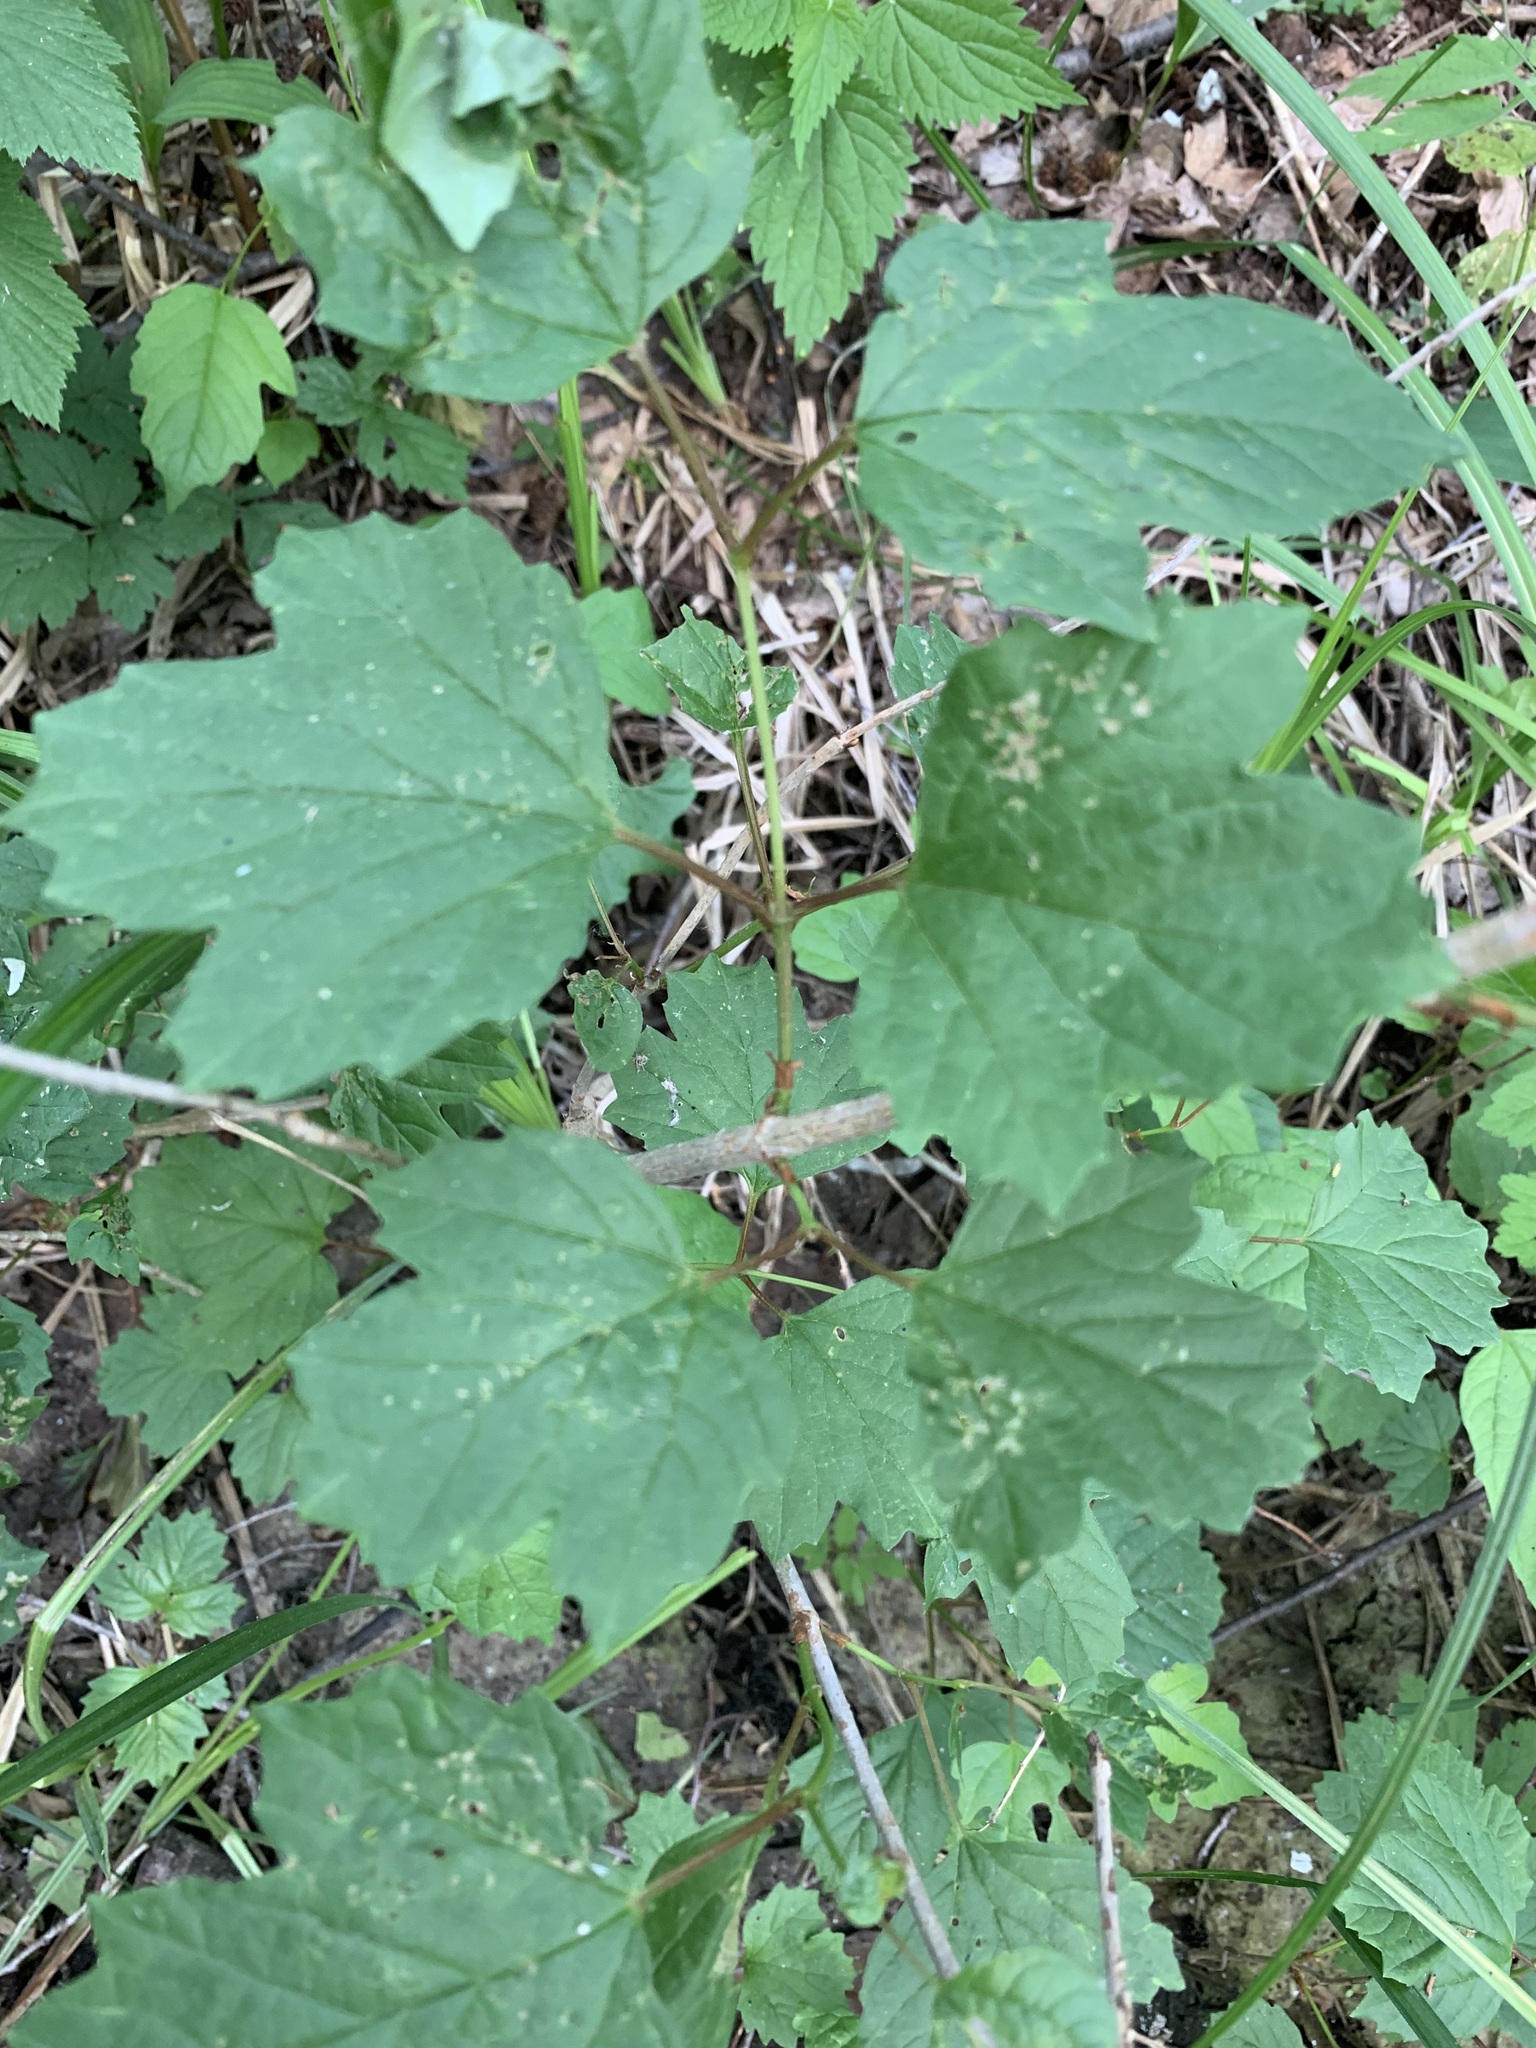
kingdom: Plantae
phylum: Tracheophyta
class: Magnoliopsida
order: Dipsacales
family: Viburnaceae
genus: Viburnum
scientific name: Viburnum opulus
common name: Guelder-rose
